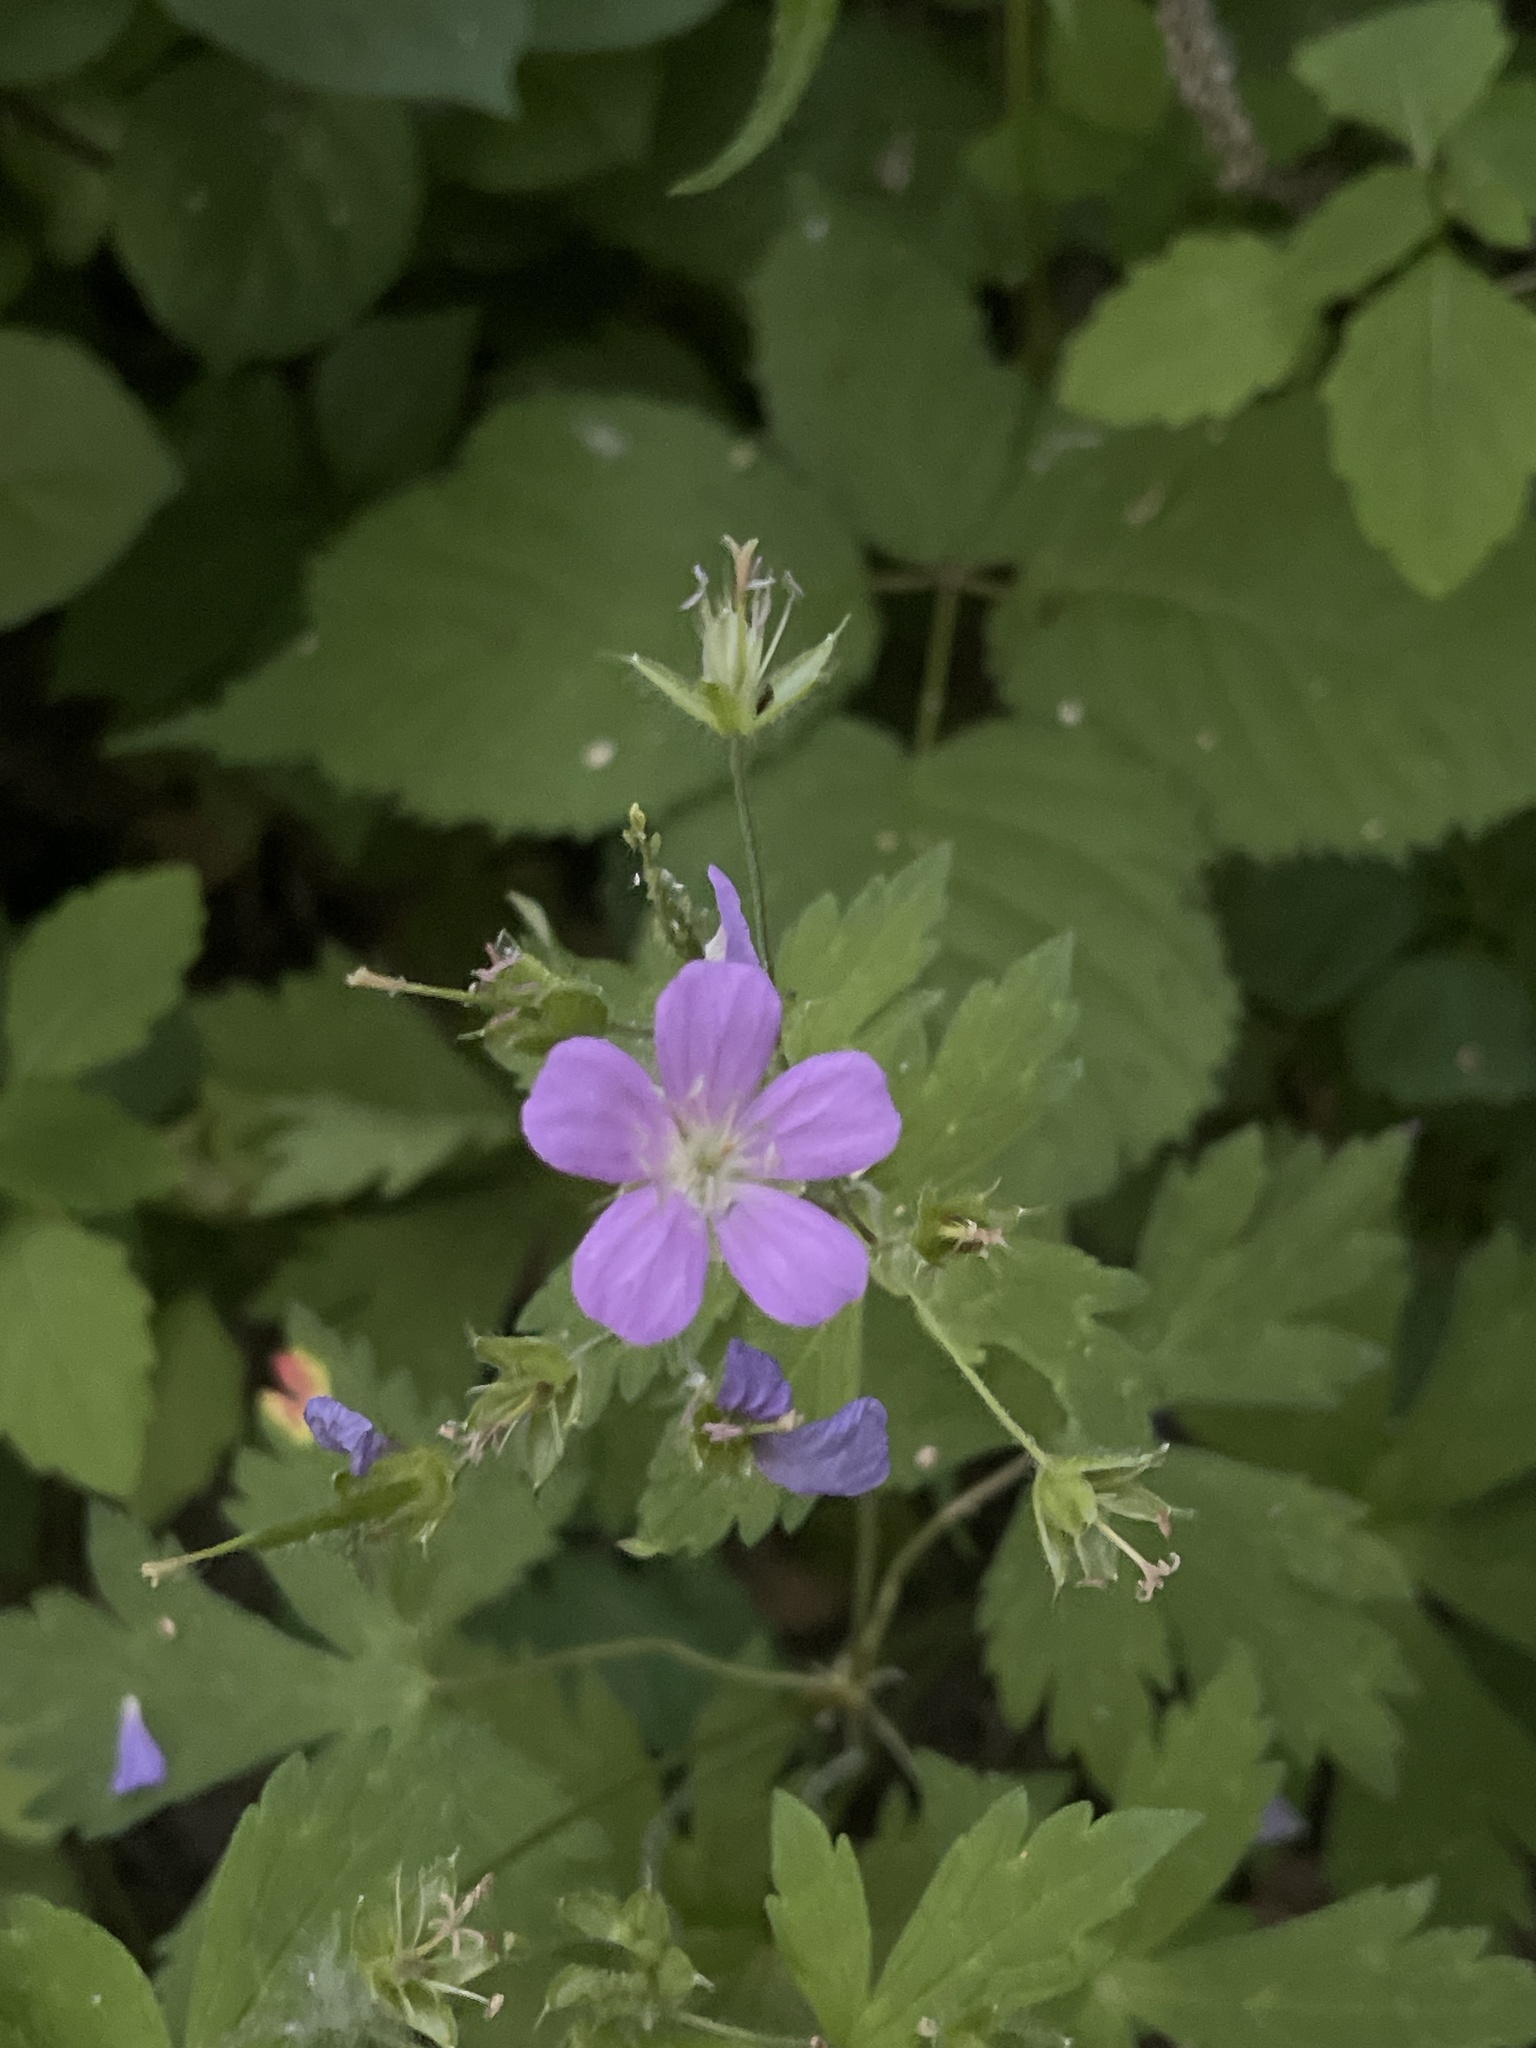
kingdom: Plantae
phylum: Tracheophyta
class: Magnoliopsida
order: Geraniales
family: Geraniaceae
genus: Geranium
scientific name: Geranium maculatum
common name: Spotted geranium
